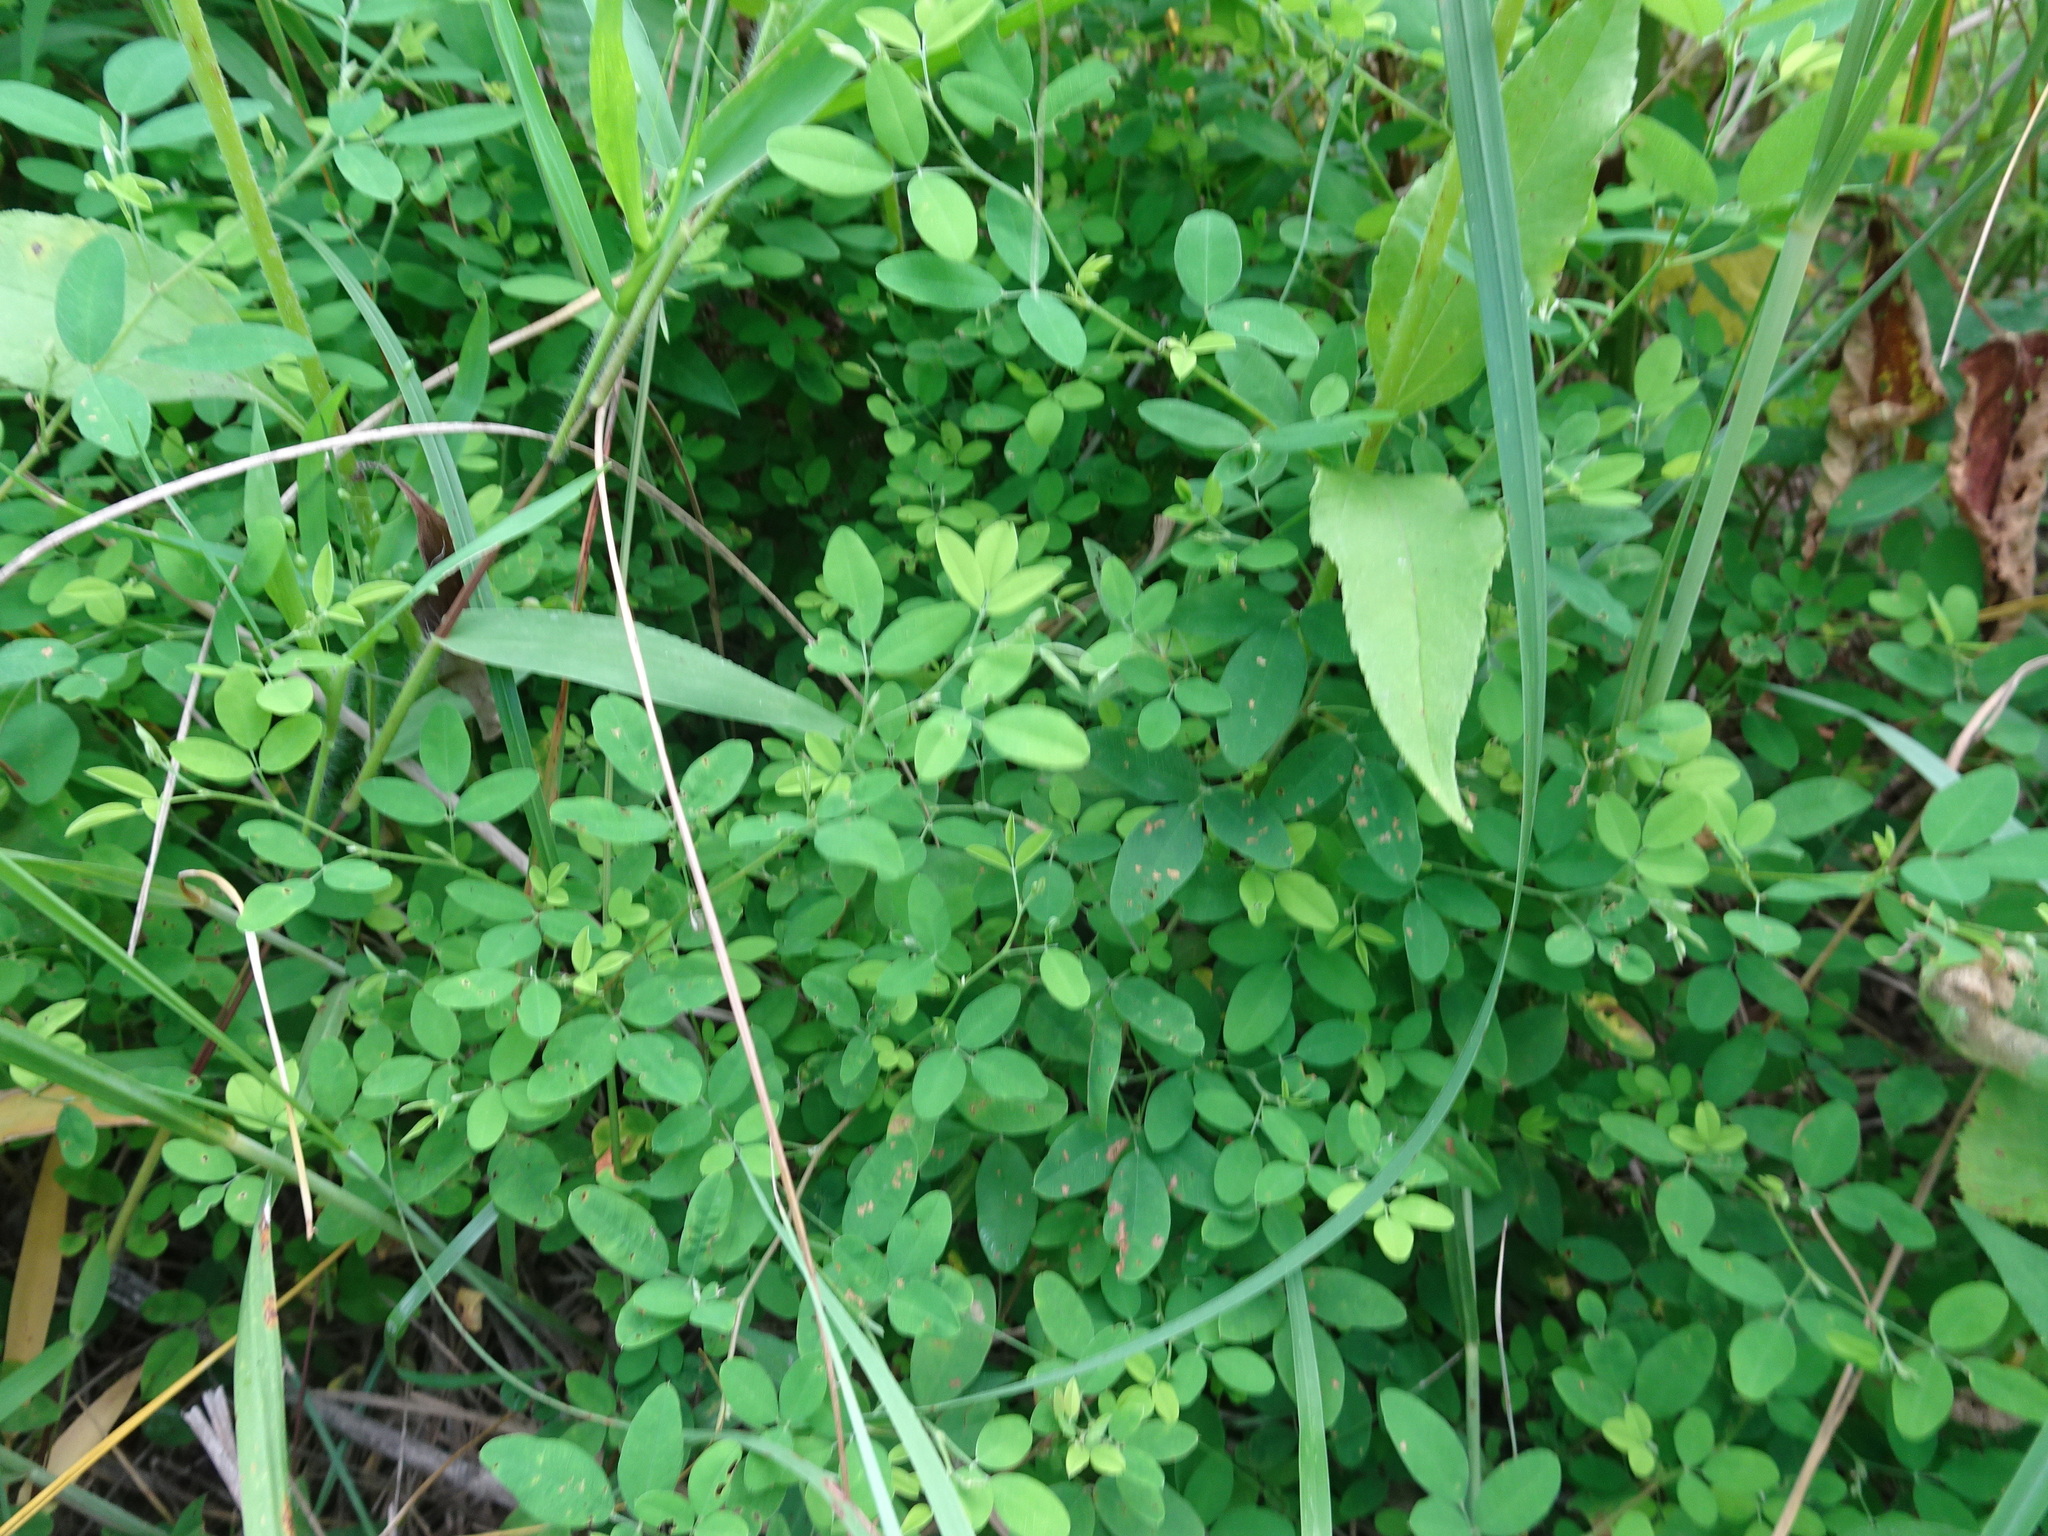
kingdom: Plantae
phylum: Tracheophyta
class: Magnoliopsida
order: Fabales
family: Fabaceae
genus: Lespedeza
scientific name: Lespedeza
